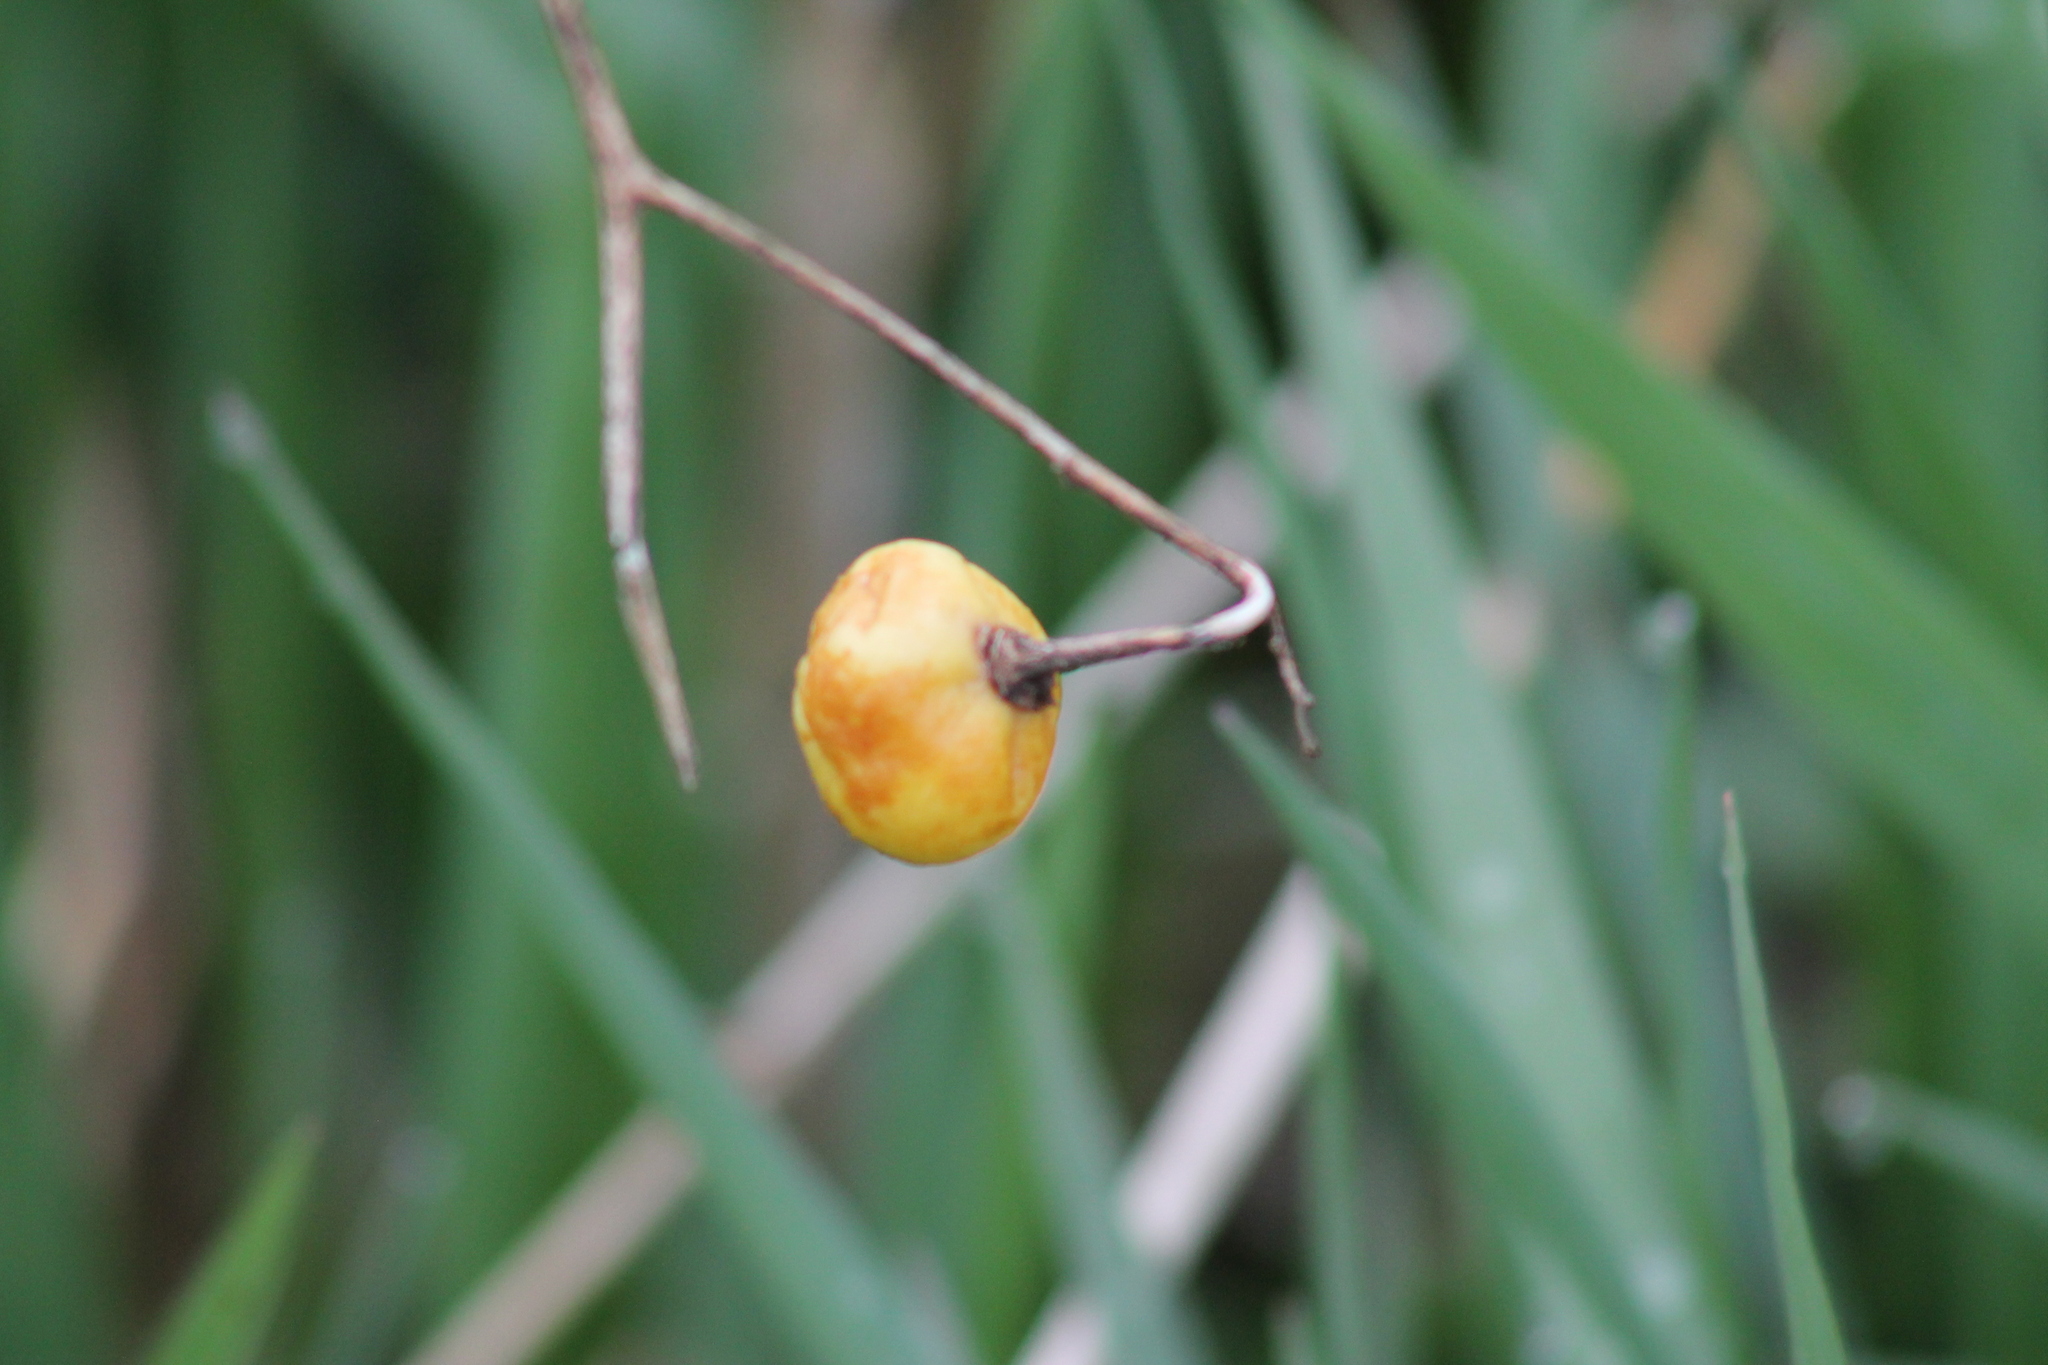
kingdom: Plantae
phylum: Tracheophyta
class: Magnoliopsida
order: Solanales
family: Solanaceae
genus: Solanum
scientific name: Solanum carolinense
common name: Horse-nettle
